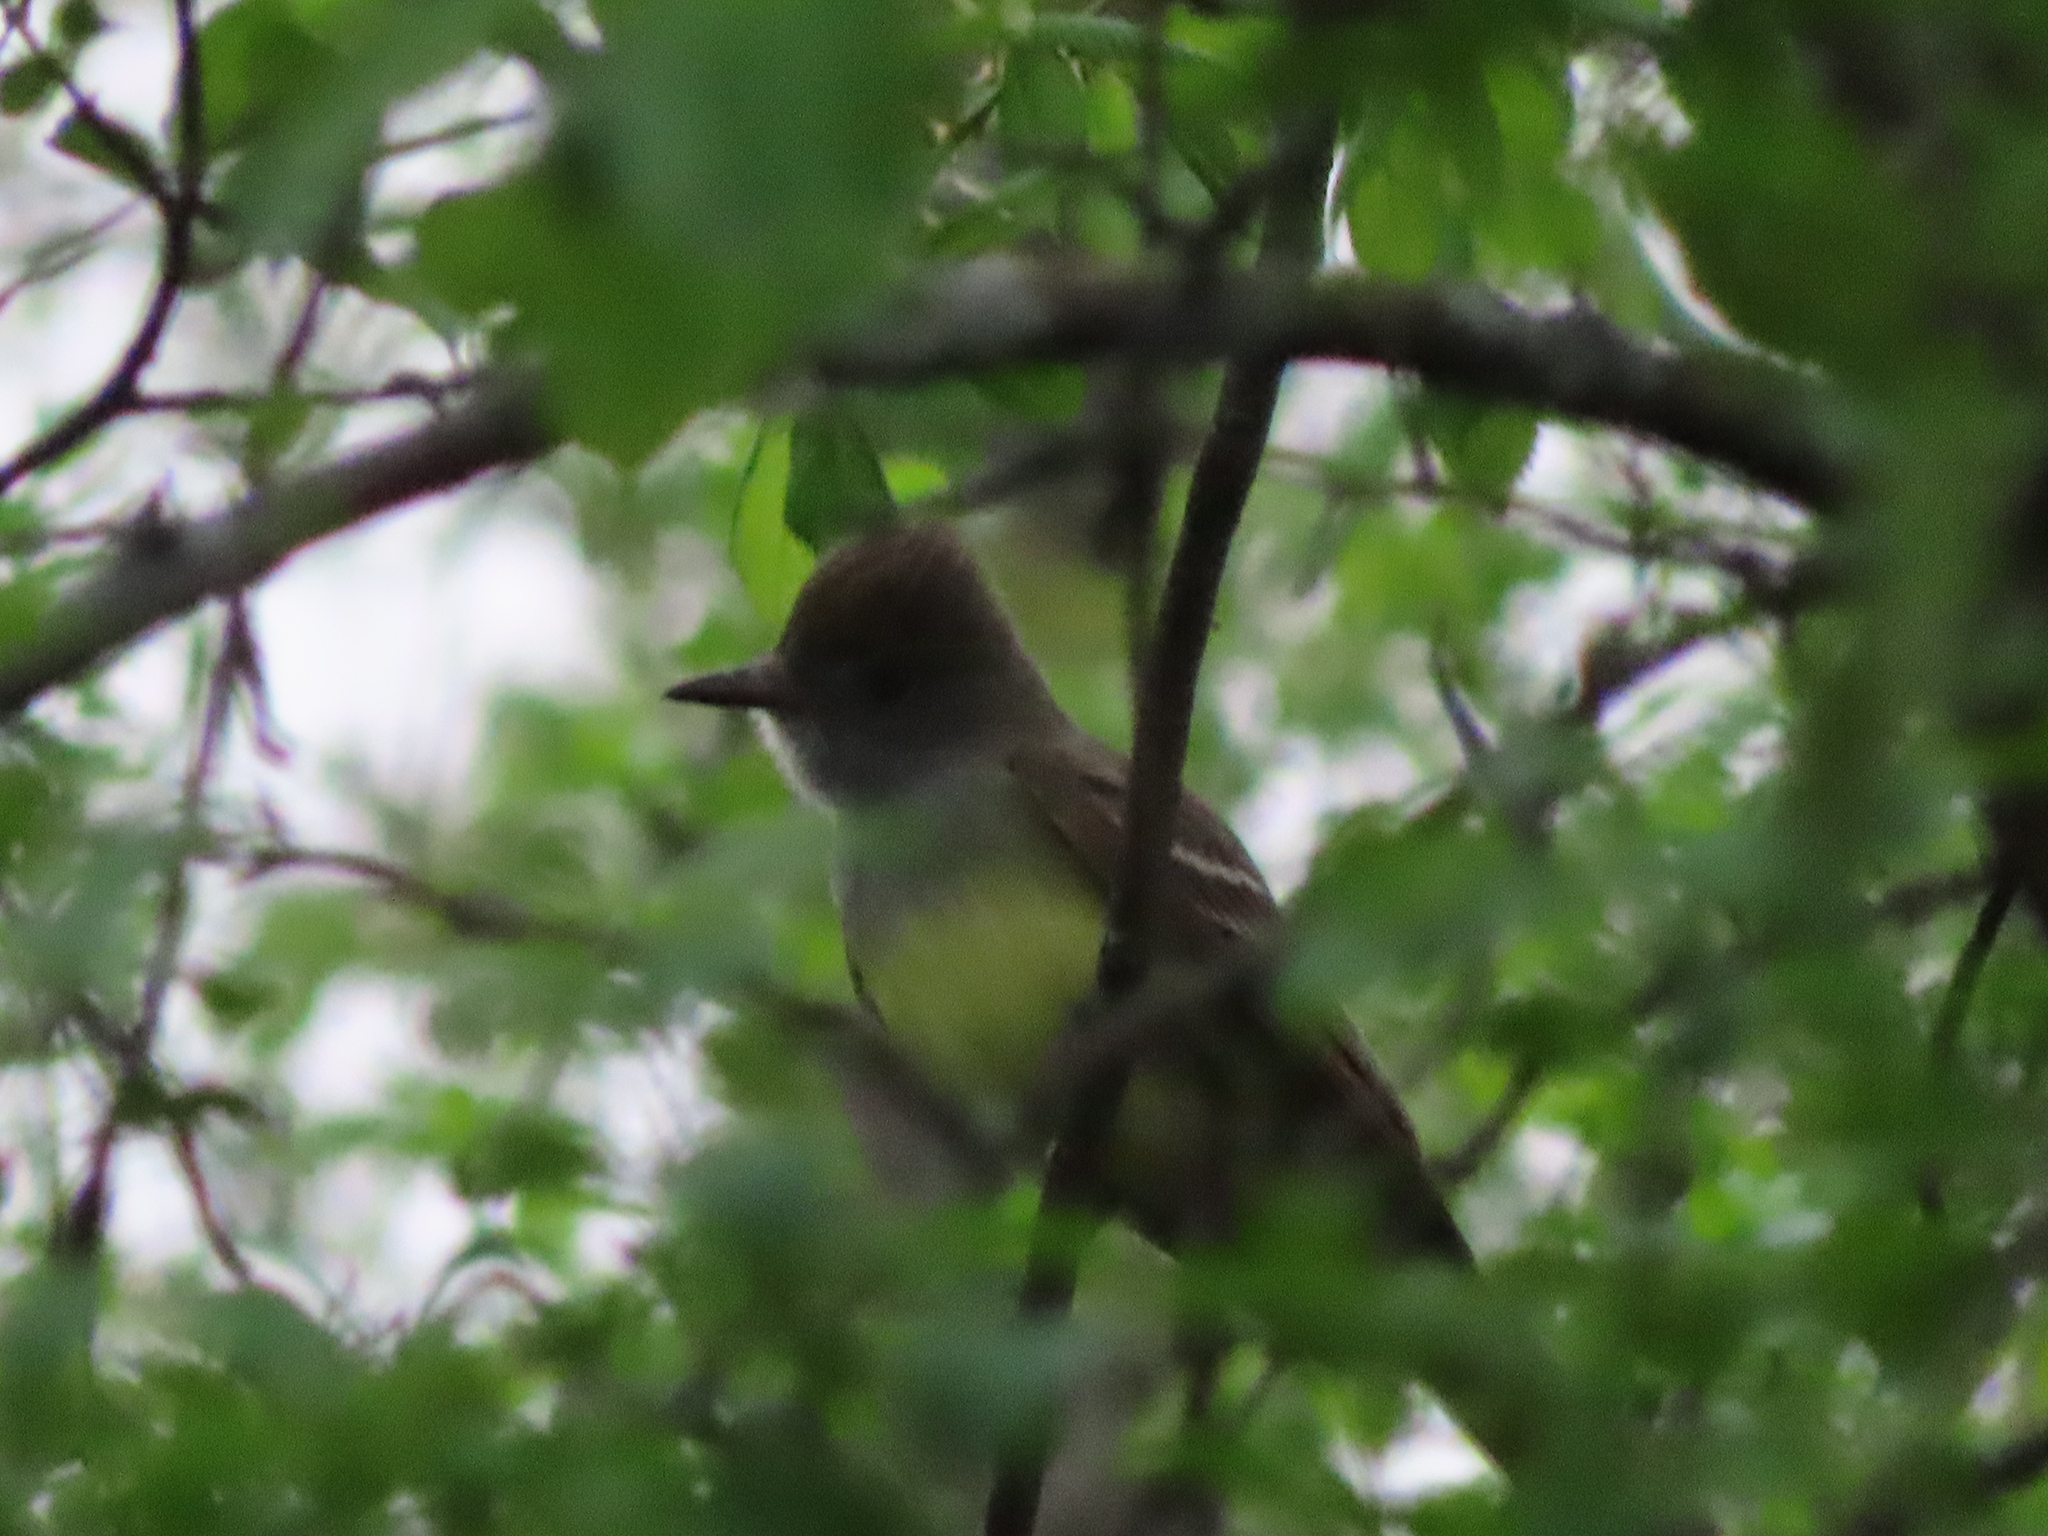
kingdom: Animalia
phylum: Chordata
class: Aves
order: Passeriformes
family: Tyrannidae
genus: Myiarchus
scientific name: Myiarchus crinitus
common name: Great crested flycatcher
